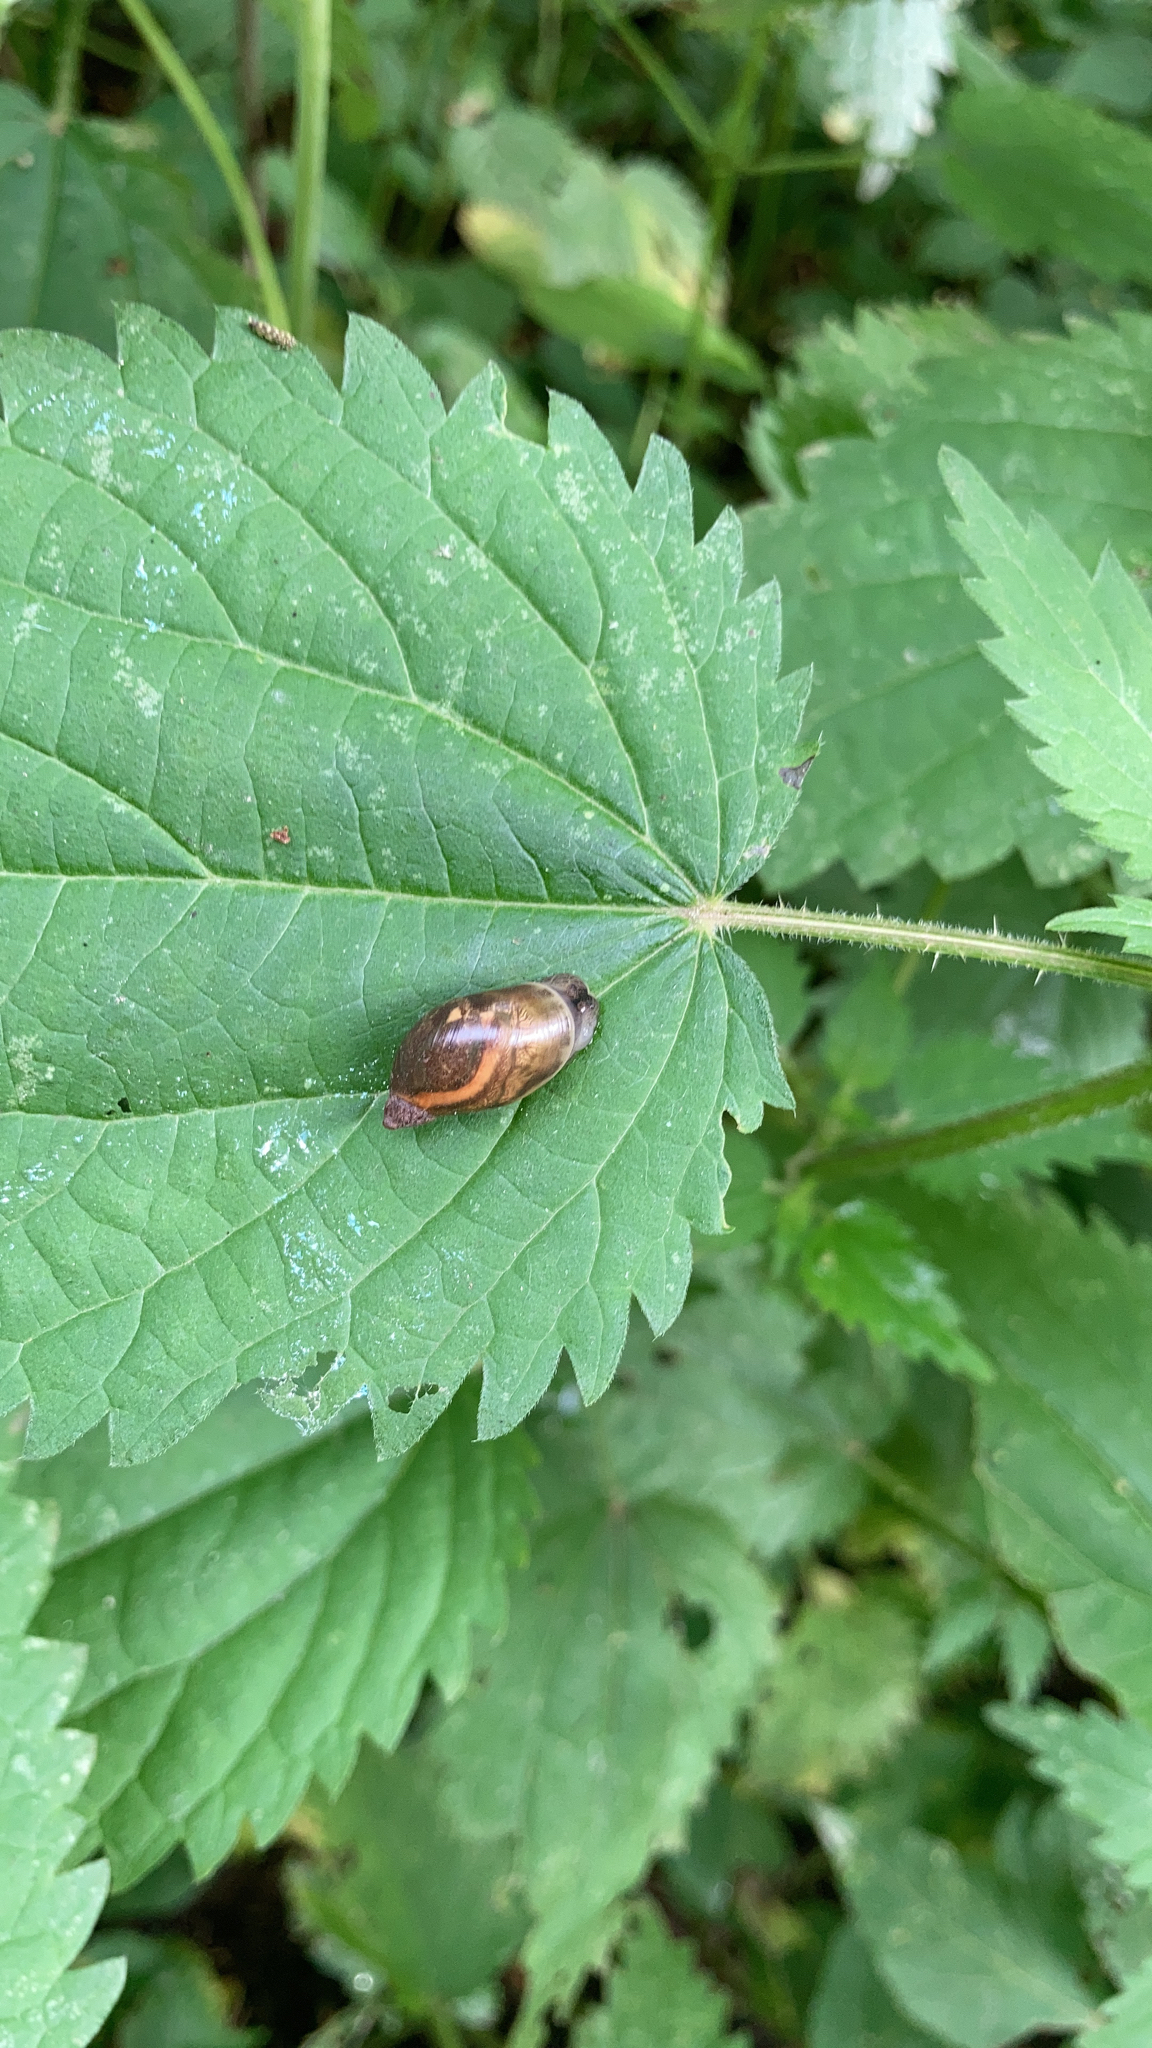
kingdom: Animalia
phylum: Mollusca
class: Gastropoda
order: Stylommatophora
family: Succineidae
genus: Succinea
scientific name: Succinea putris
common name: European ambersnail
